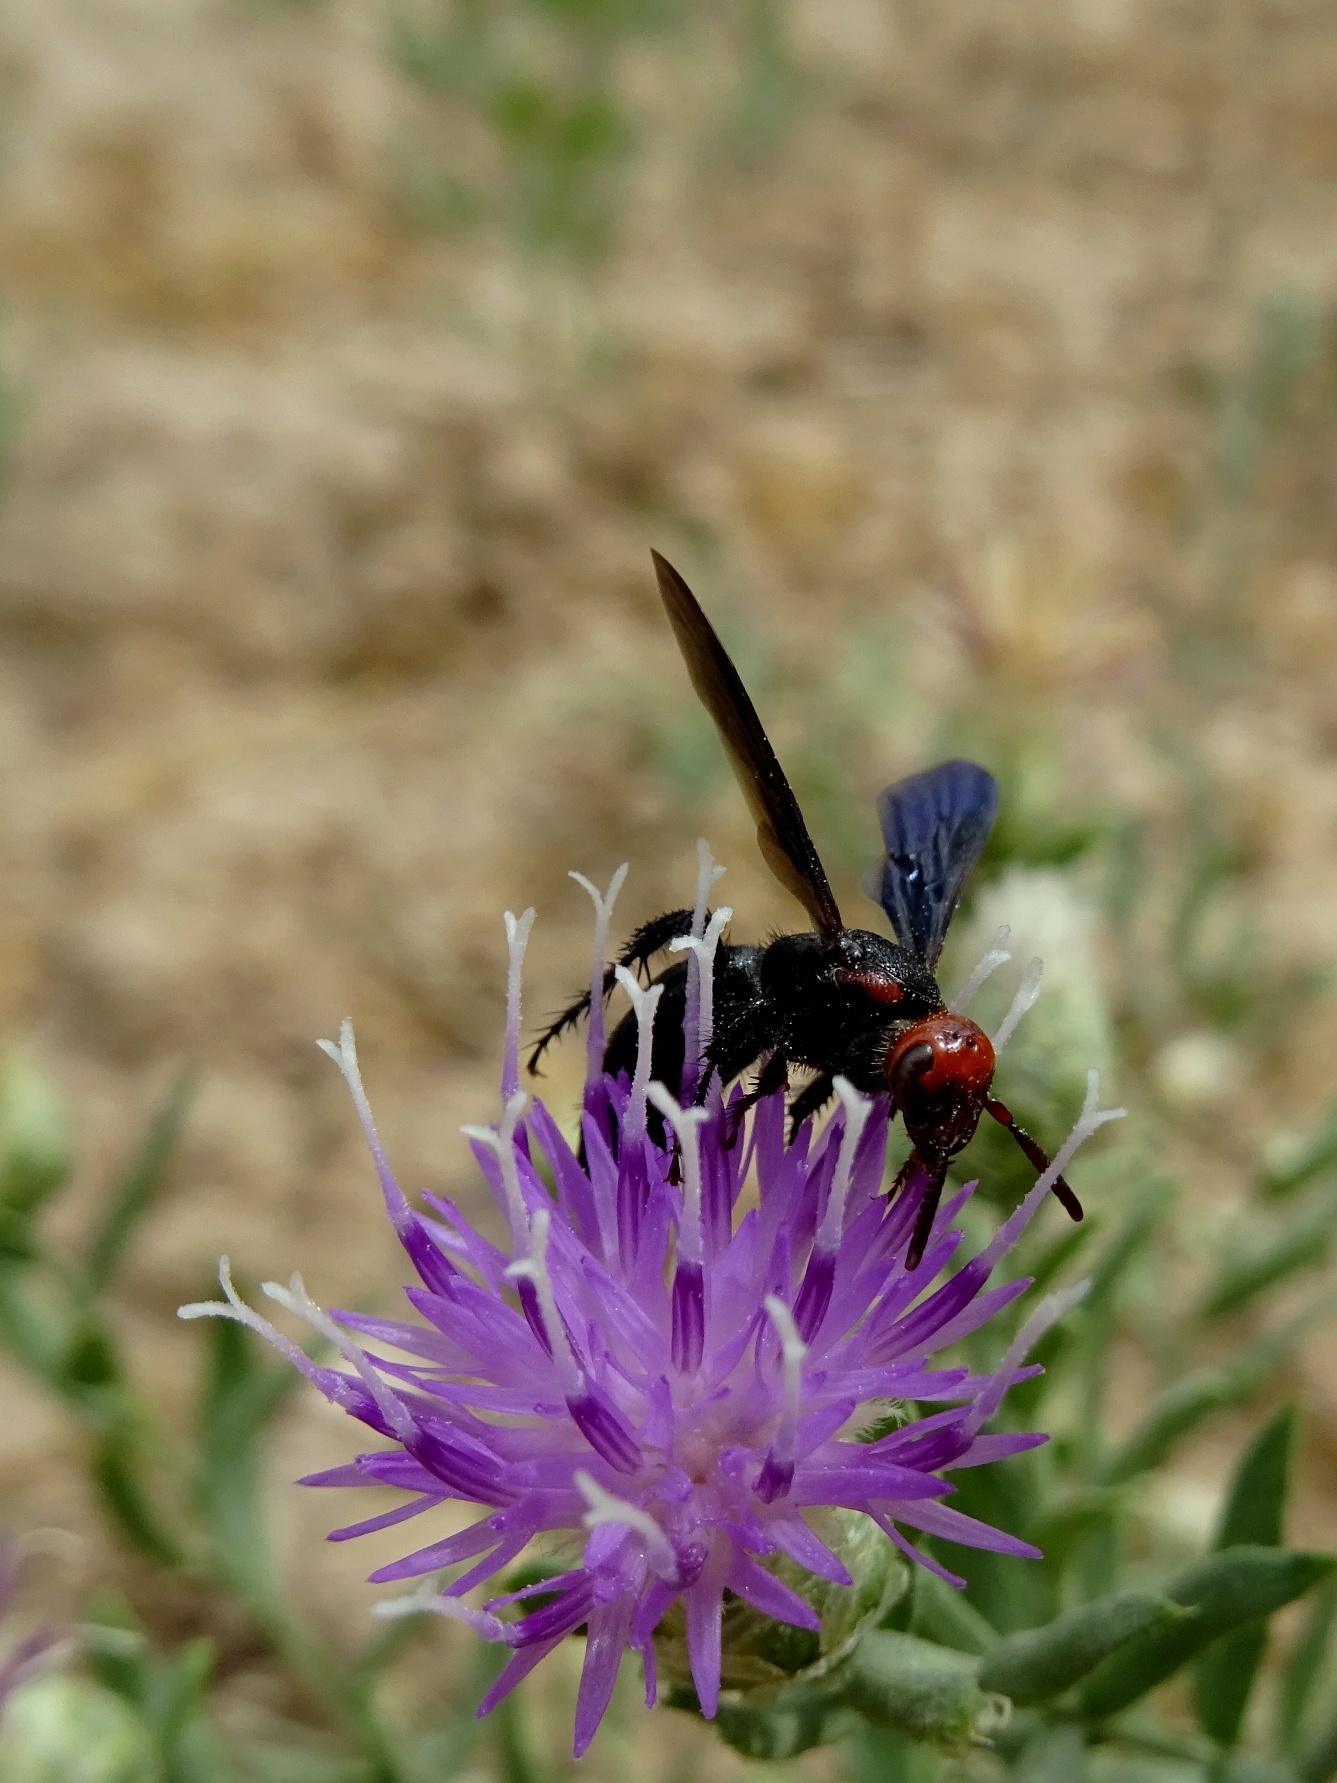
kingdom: Animalia
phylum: Arthropoda
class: Insecta
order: Hymenoptera
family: Scoliidae
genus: Scolia
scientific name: Scolia
